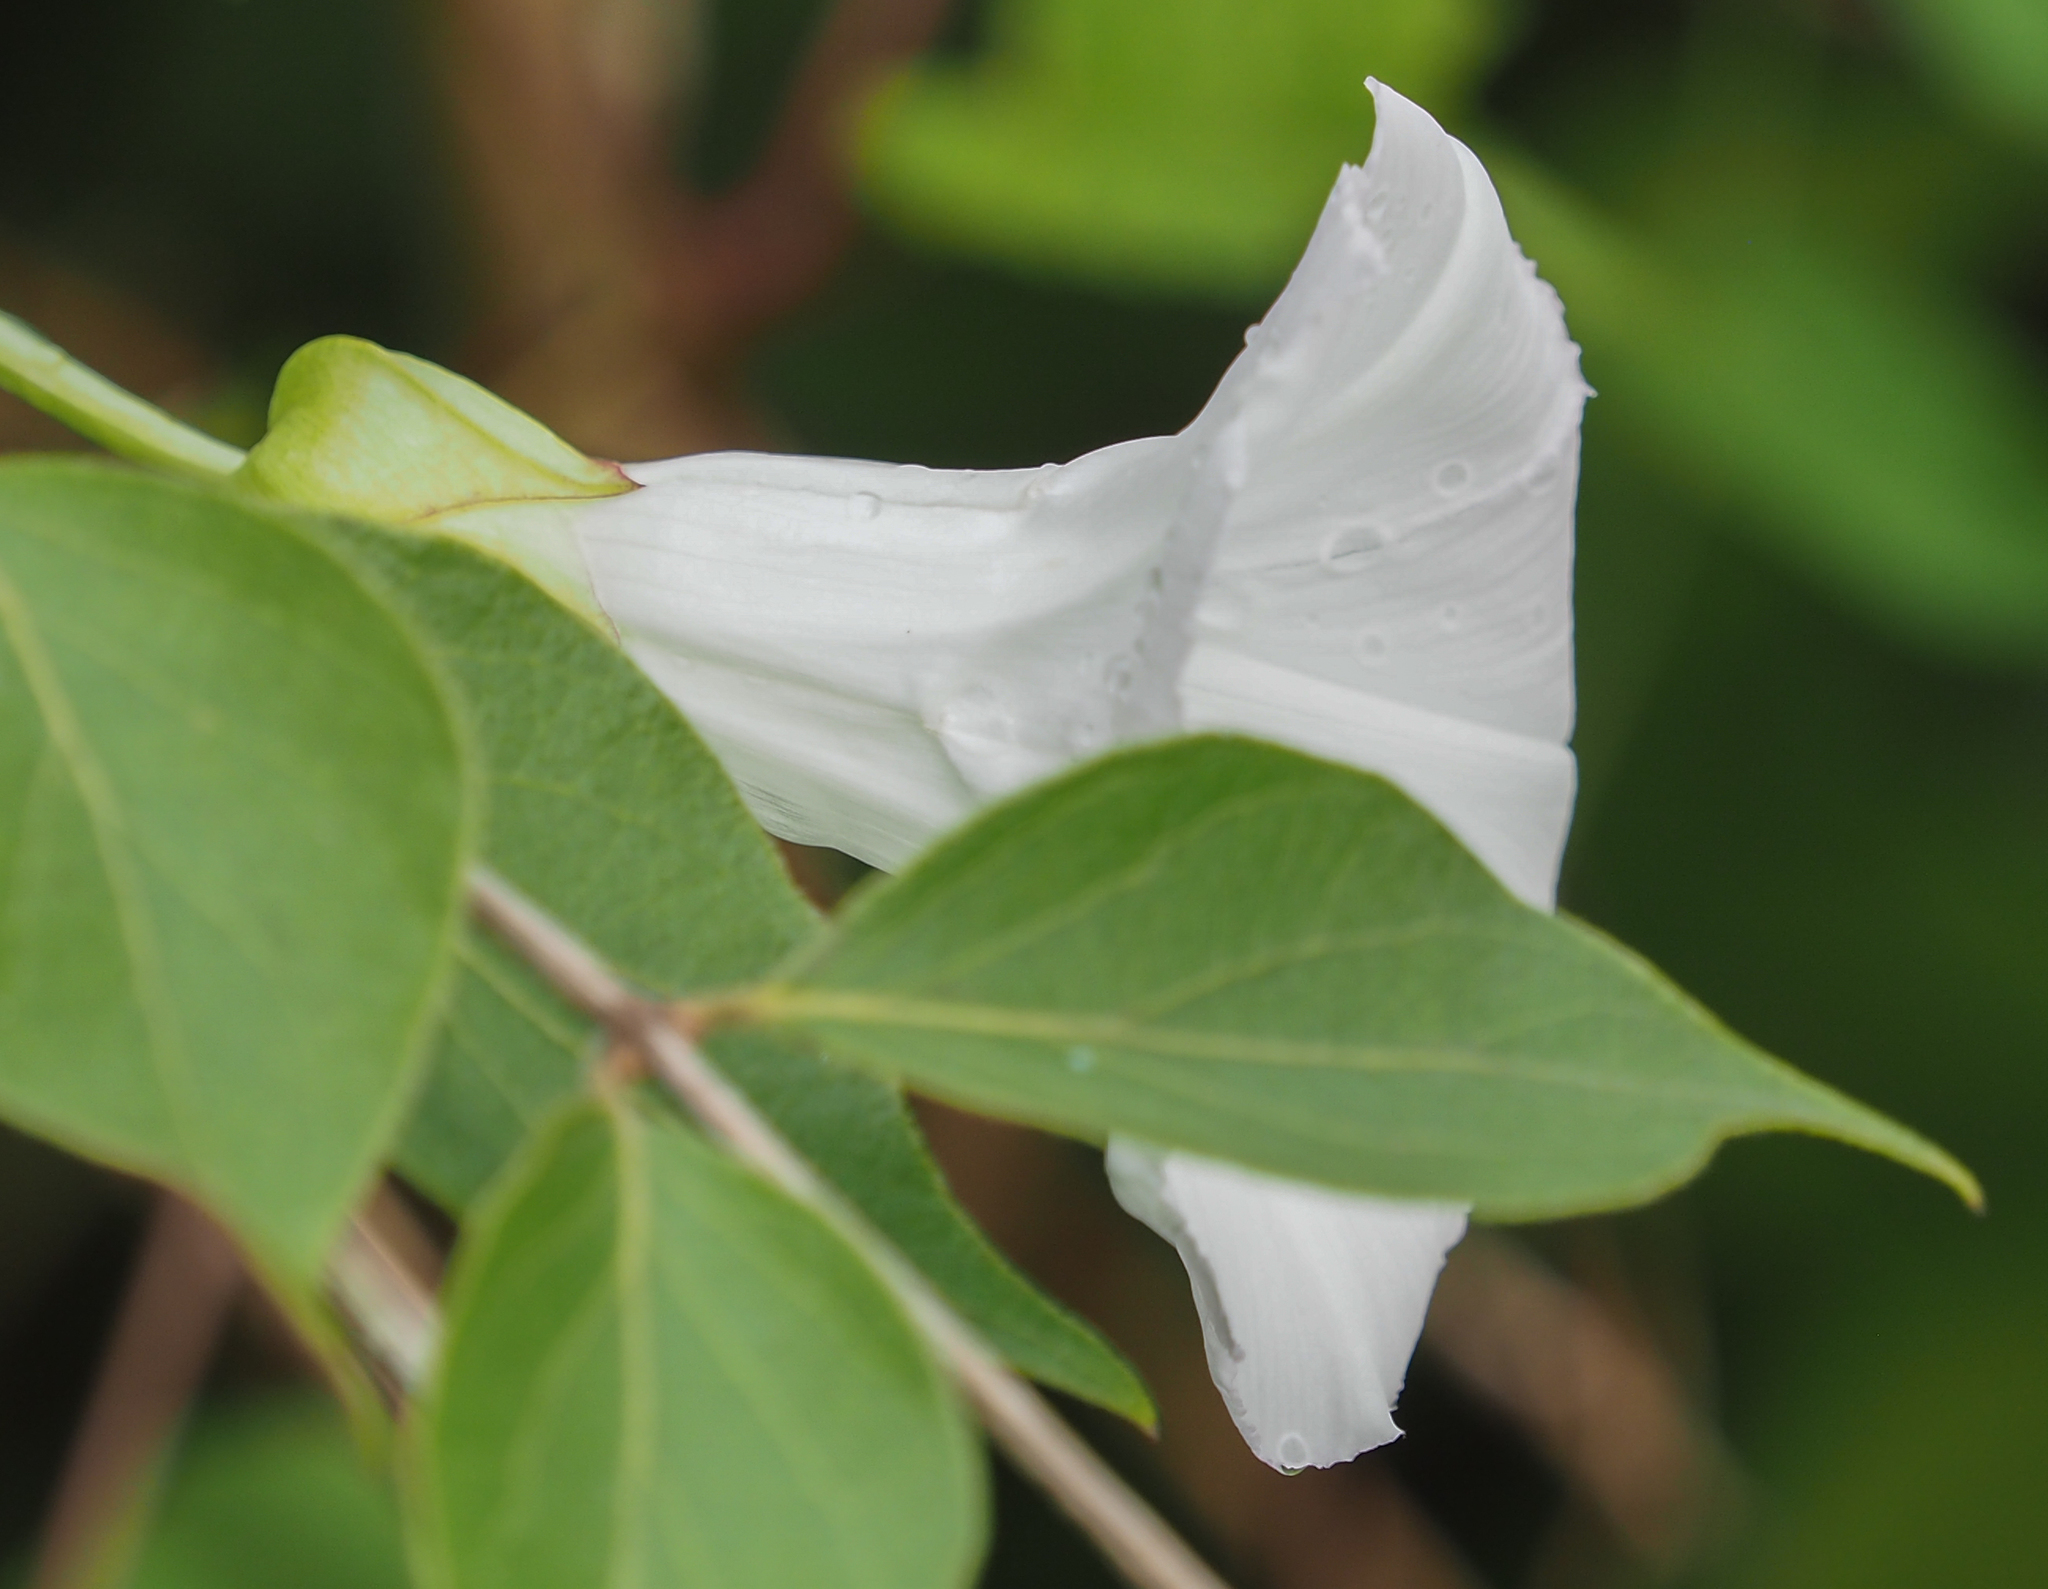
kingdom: Plantae
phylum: Tracheophyta
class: Magnoliopsida
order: Solanales
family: Convolvulaceae
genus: Calystegia
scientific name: Calystegia sepium
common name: Hedge bindweed
